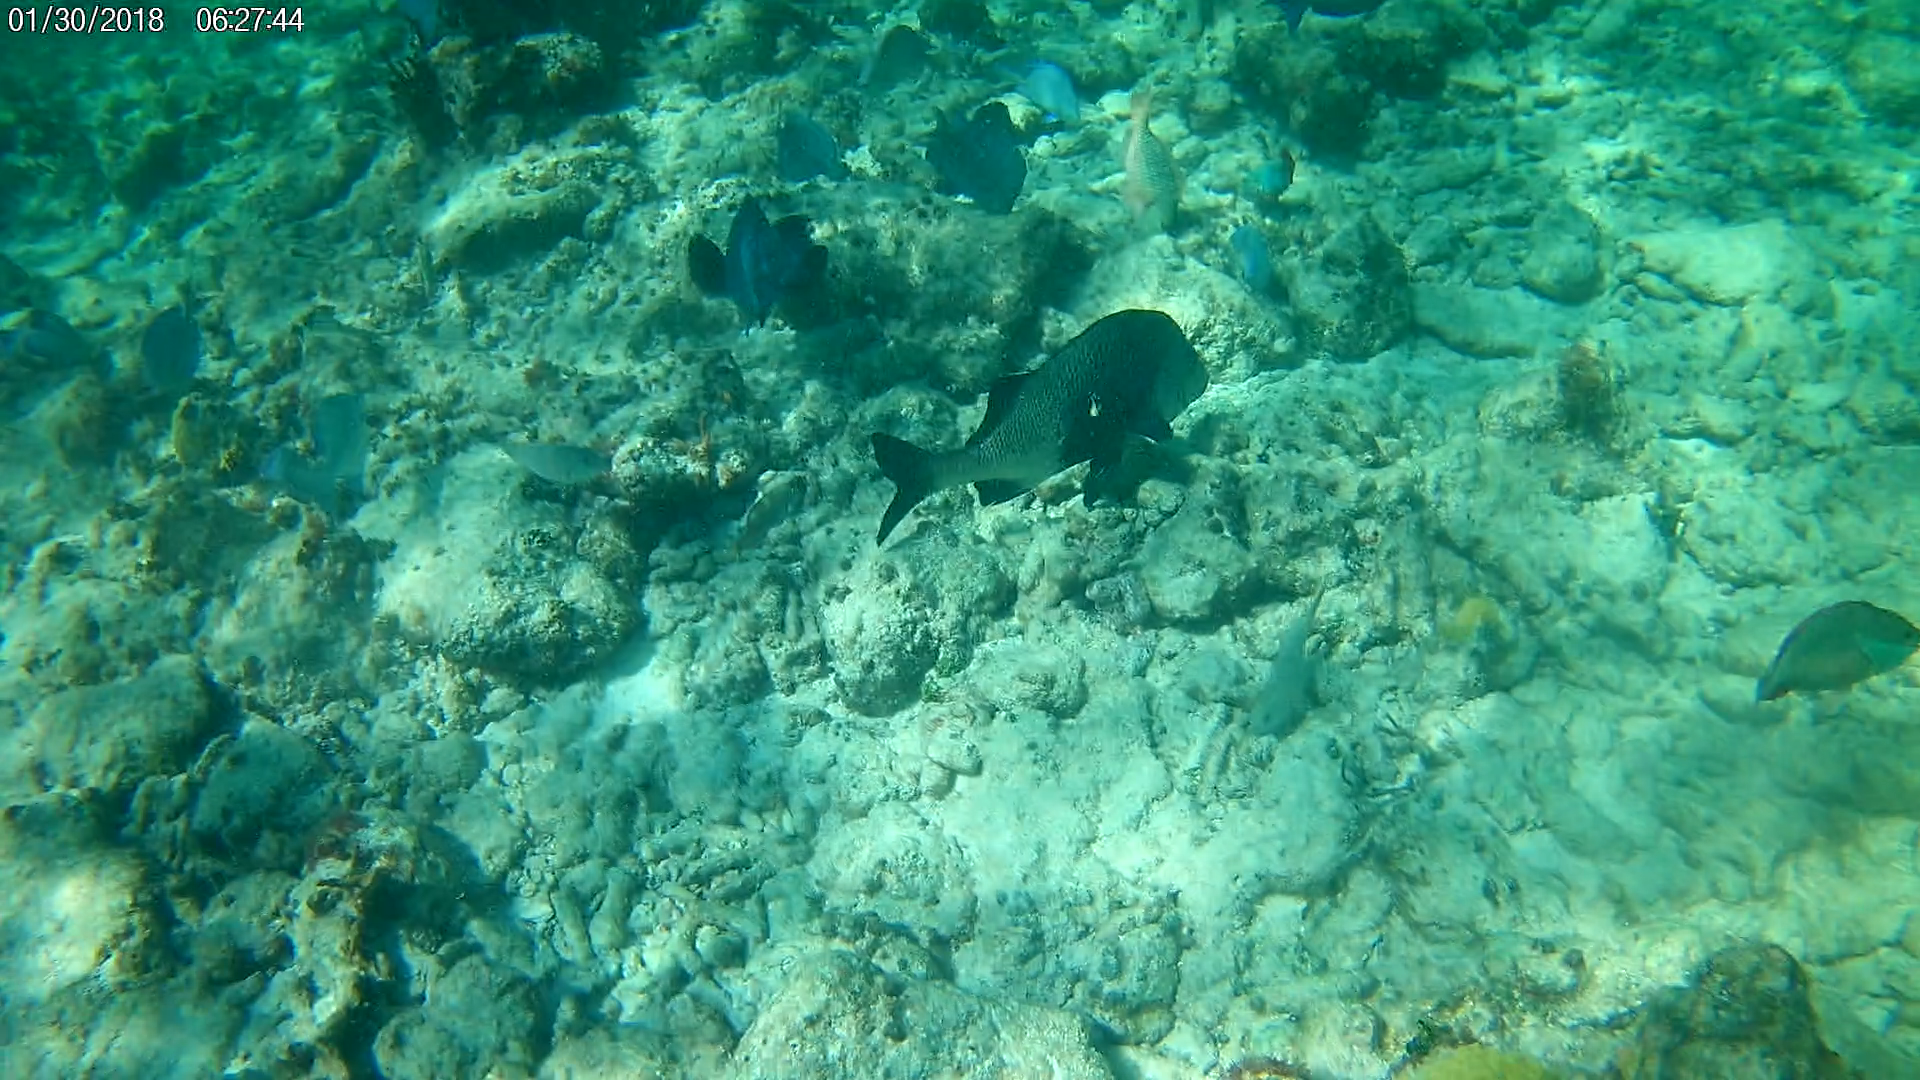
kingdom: Animalia
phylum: Chordata
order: Perciformes
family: Haemulidae
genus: Anisotremus
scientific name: Anisotremus surinamensis
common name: Black margate
